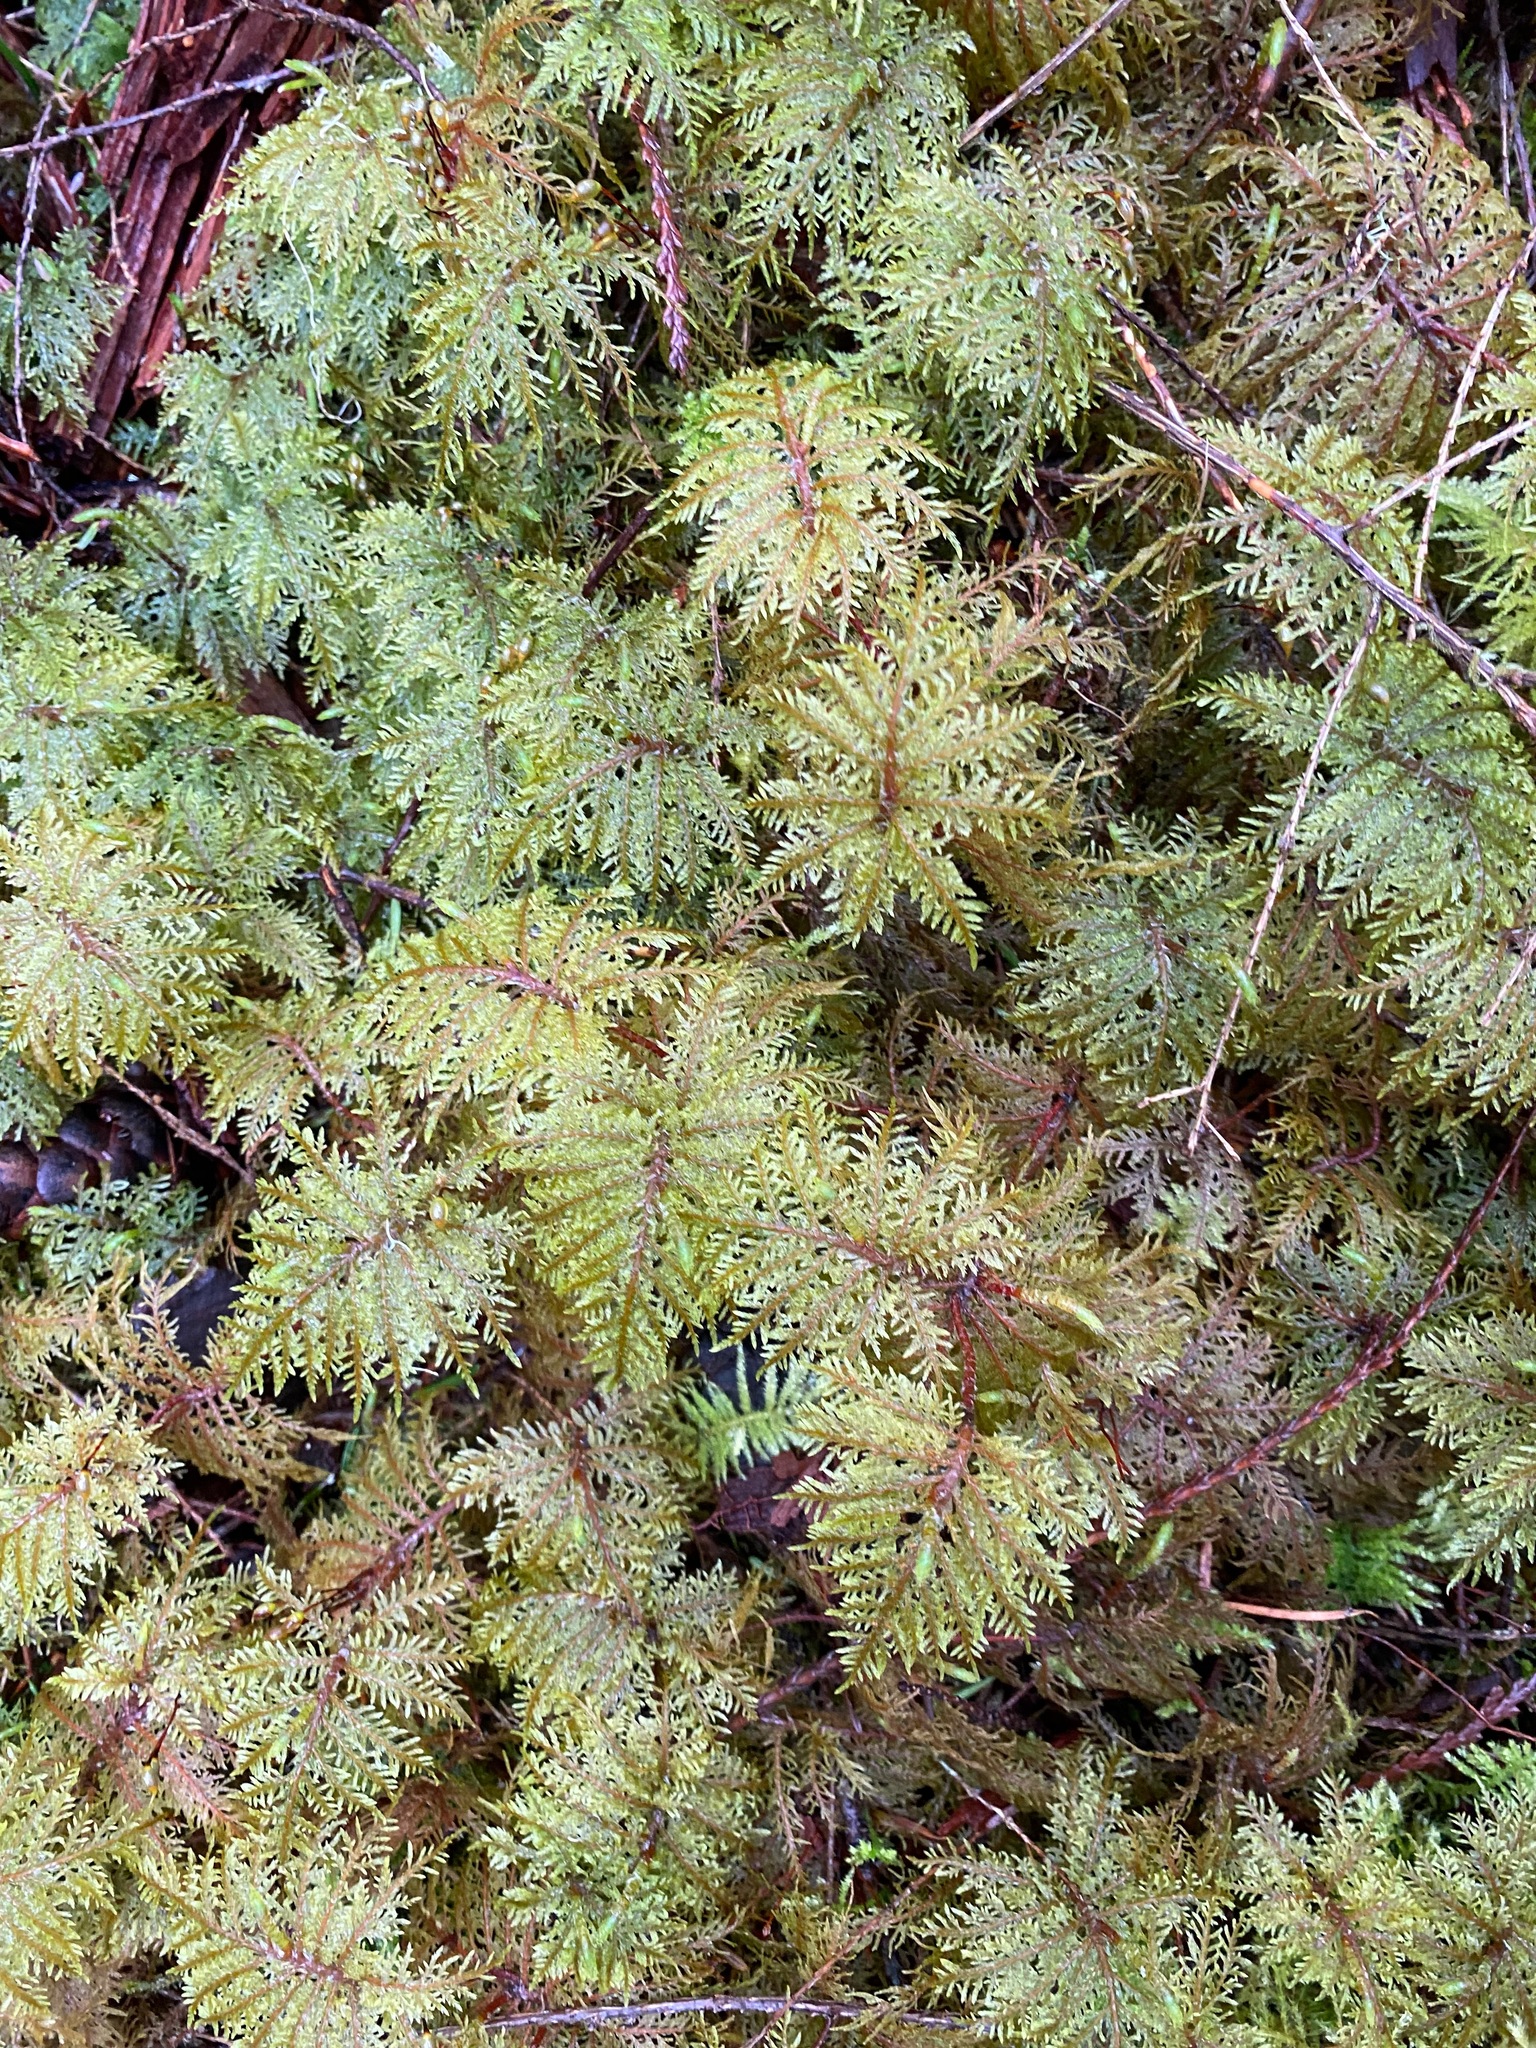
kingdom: Plantae
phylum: Bryophyta
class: Bryopsida
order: Hypnales
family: Hylocomiaceae
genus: Hylocomium
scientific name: Hylocomium splendens
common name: Stairstep moss
